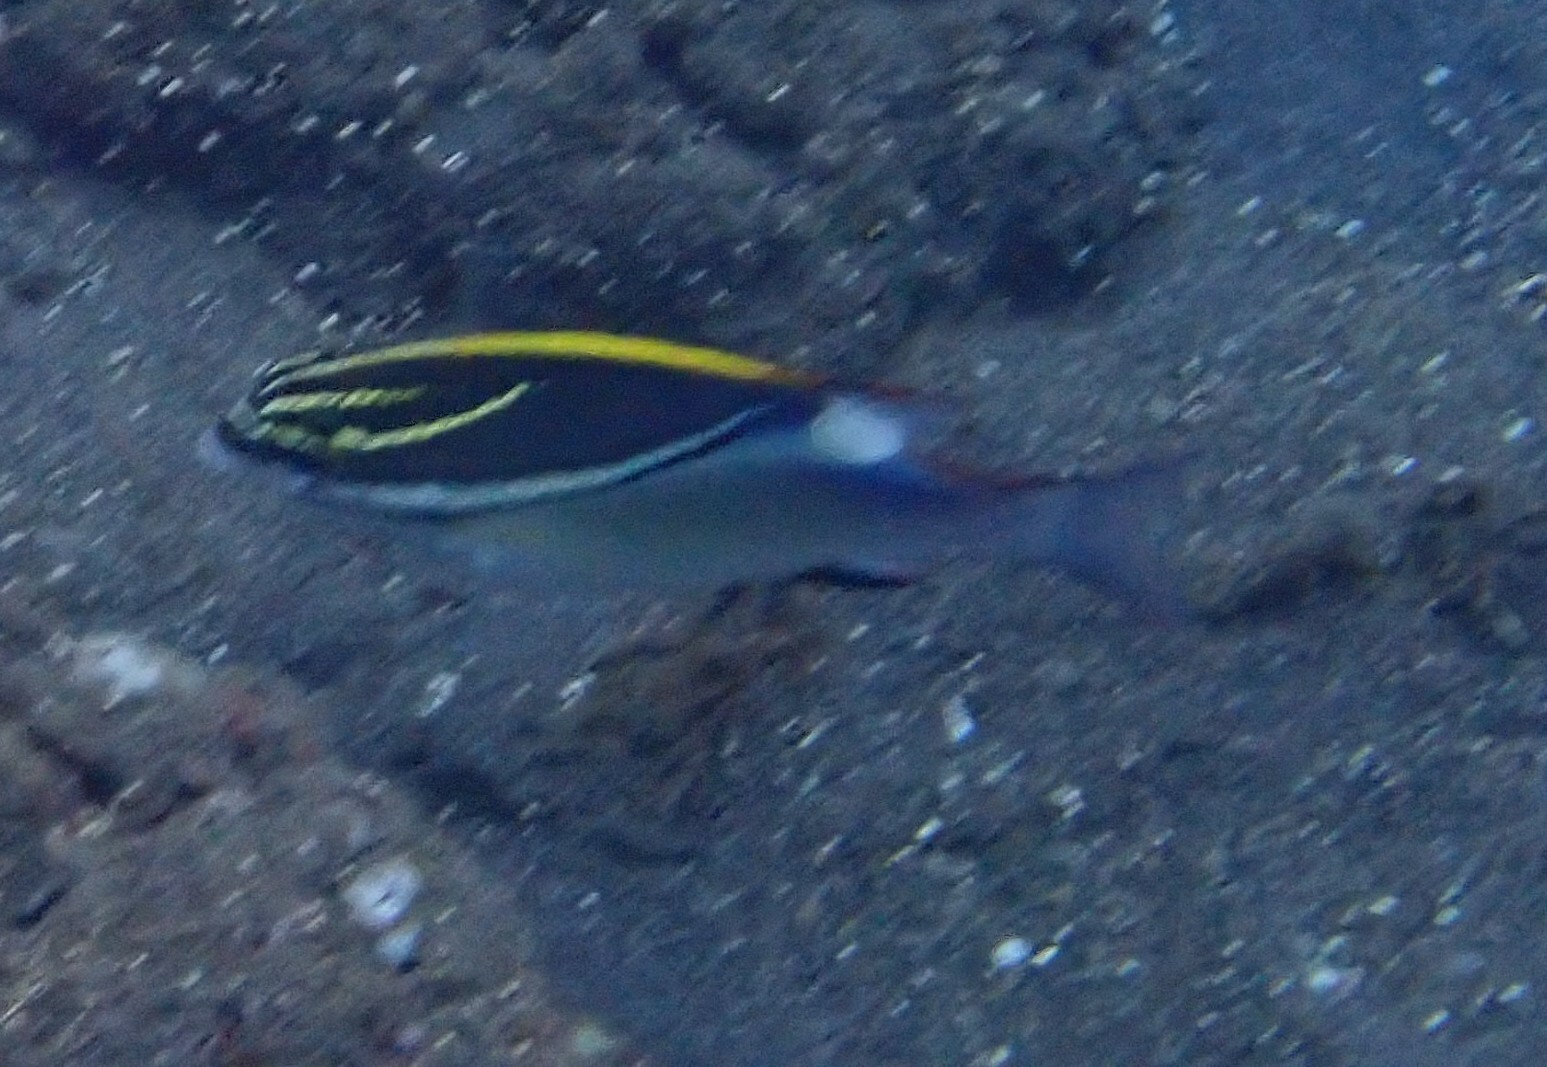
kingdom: Animalia
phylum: Chordata
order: Perciformes
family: Nemipteridae
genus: Scolopsis
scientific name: Scolopsis bilineata
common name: Two-lined monocle bream
